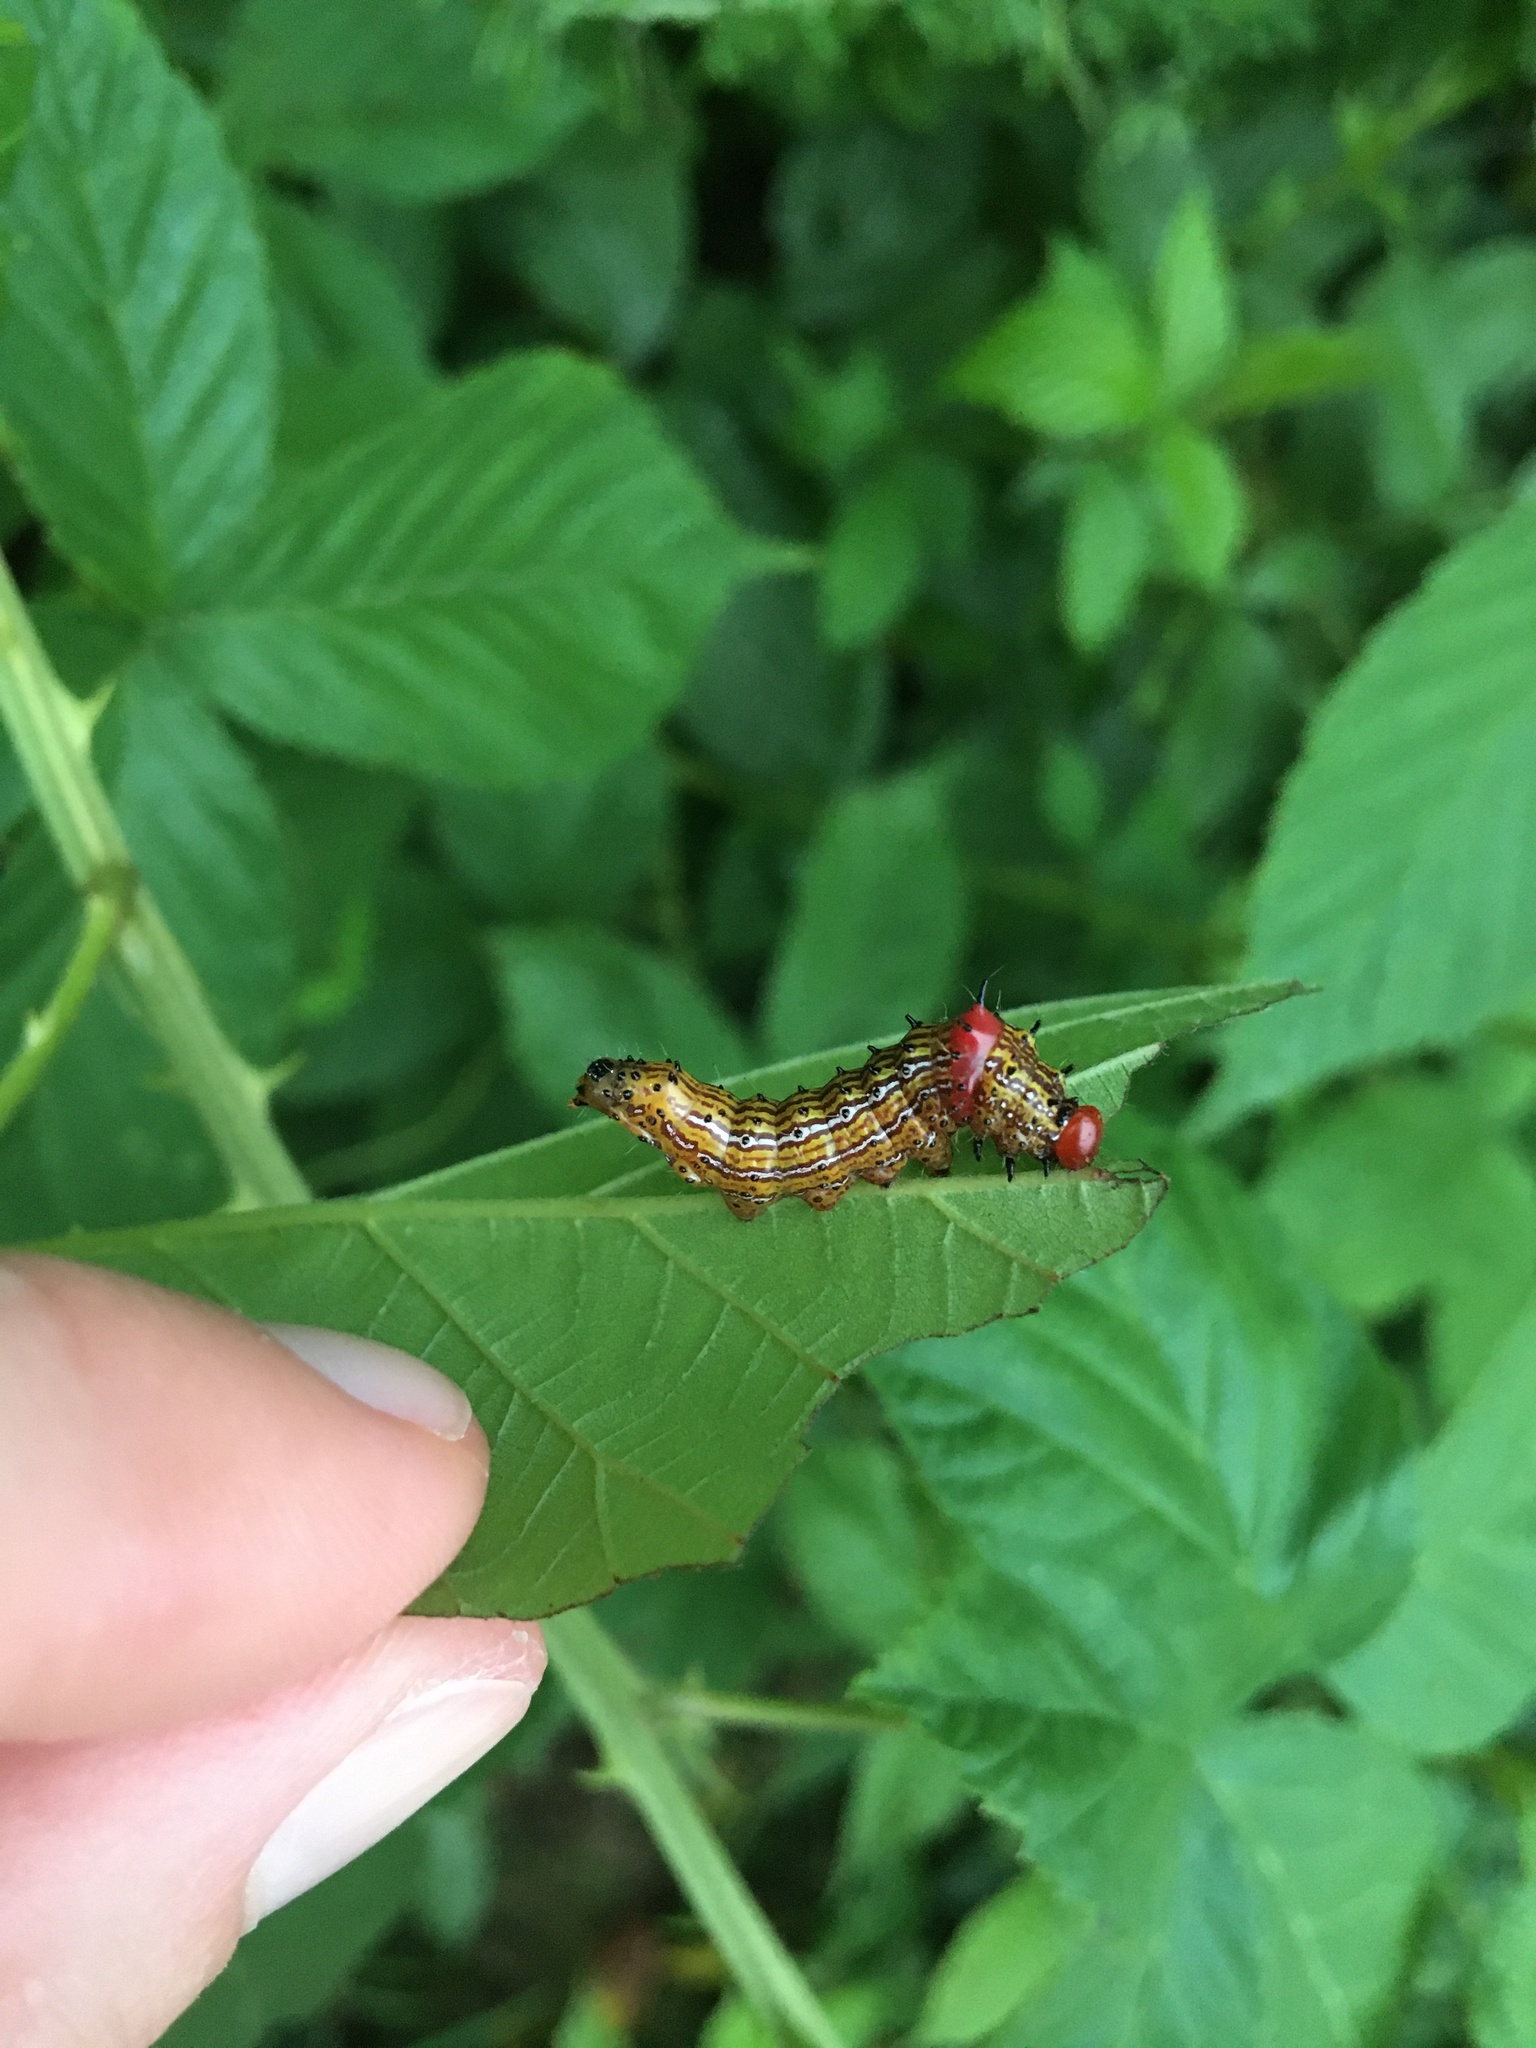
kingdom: Animalia
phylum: Arthropoda
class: Insecta
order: Lepidoptera
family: Notodontidae
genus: Schizura
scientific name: Schizura
